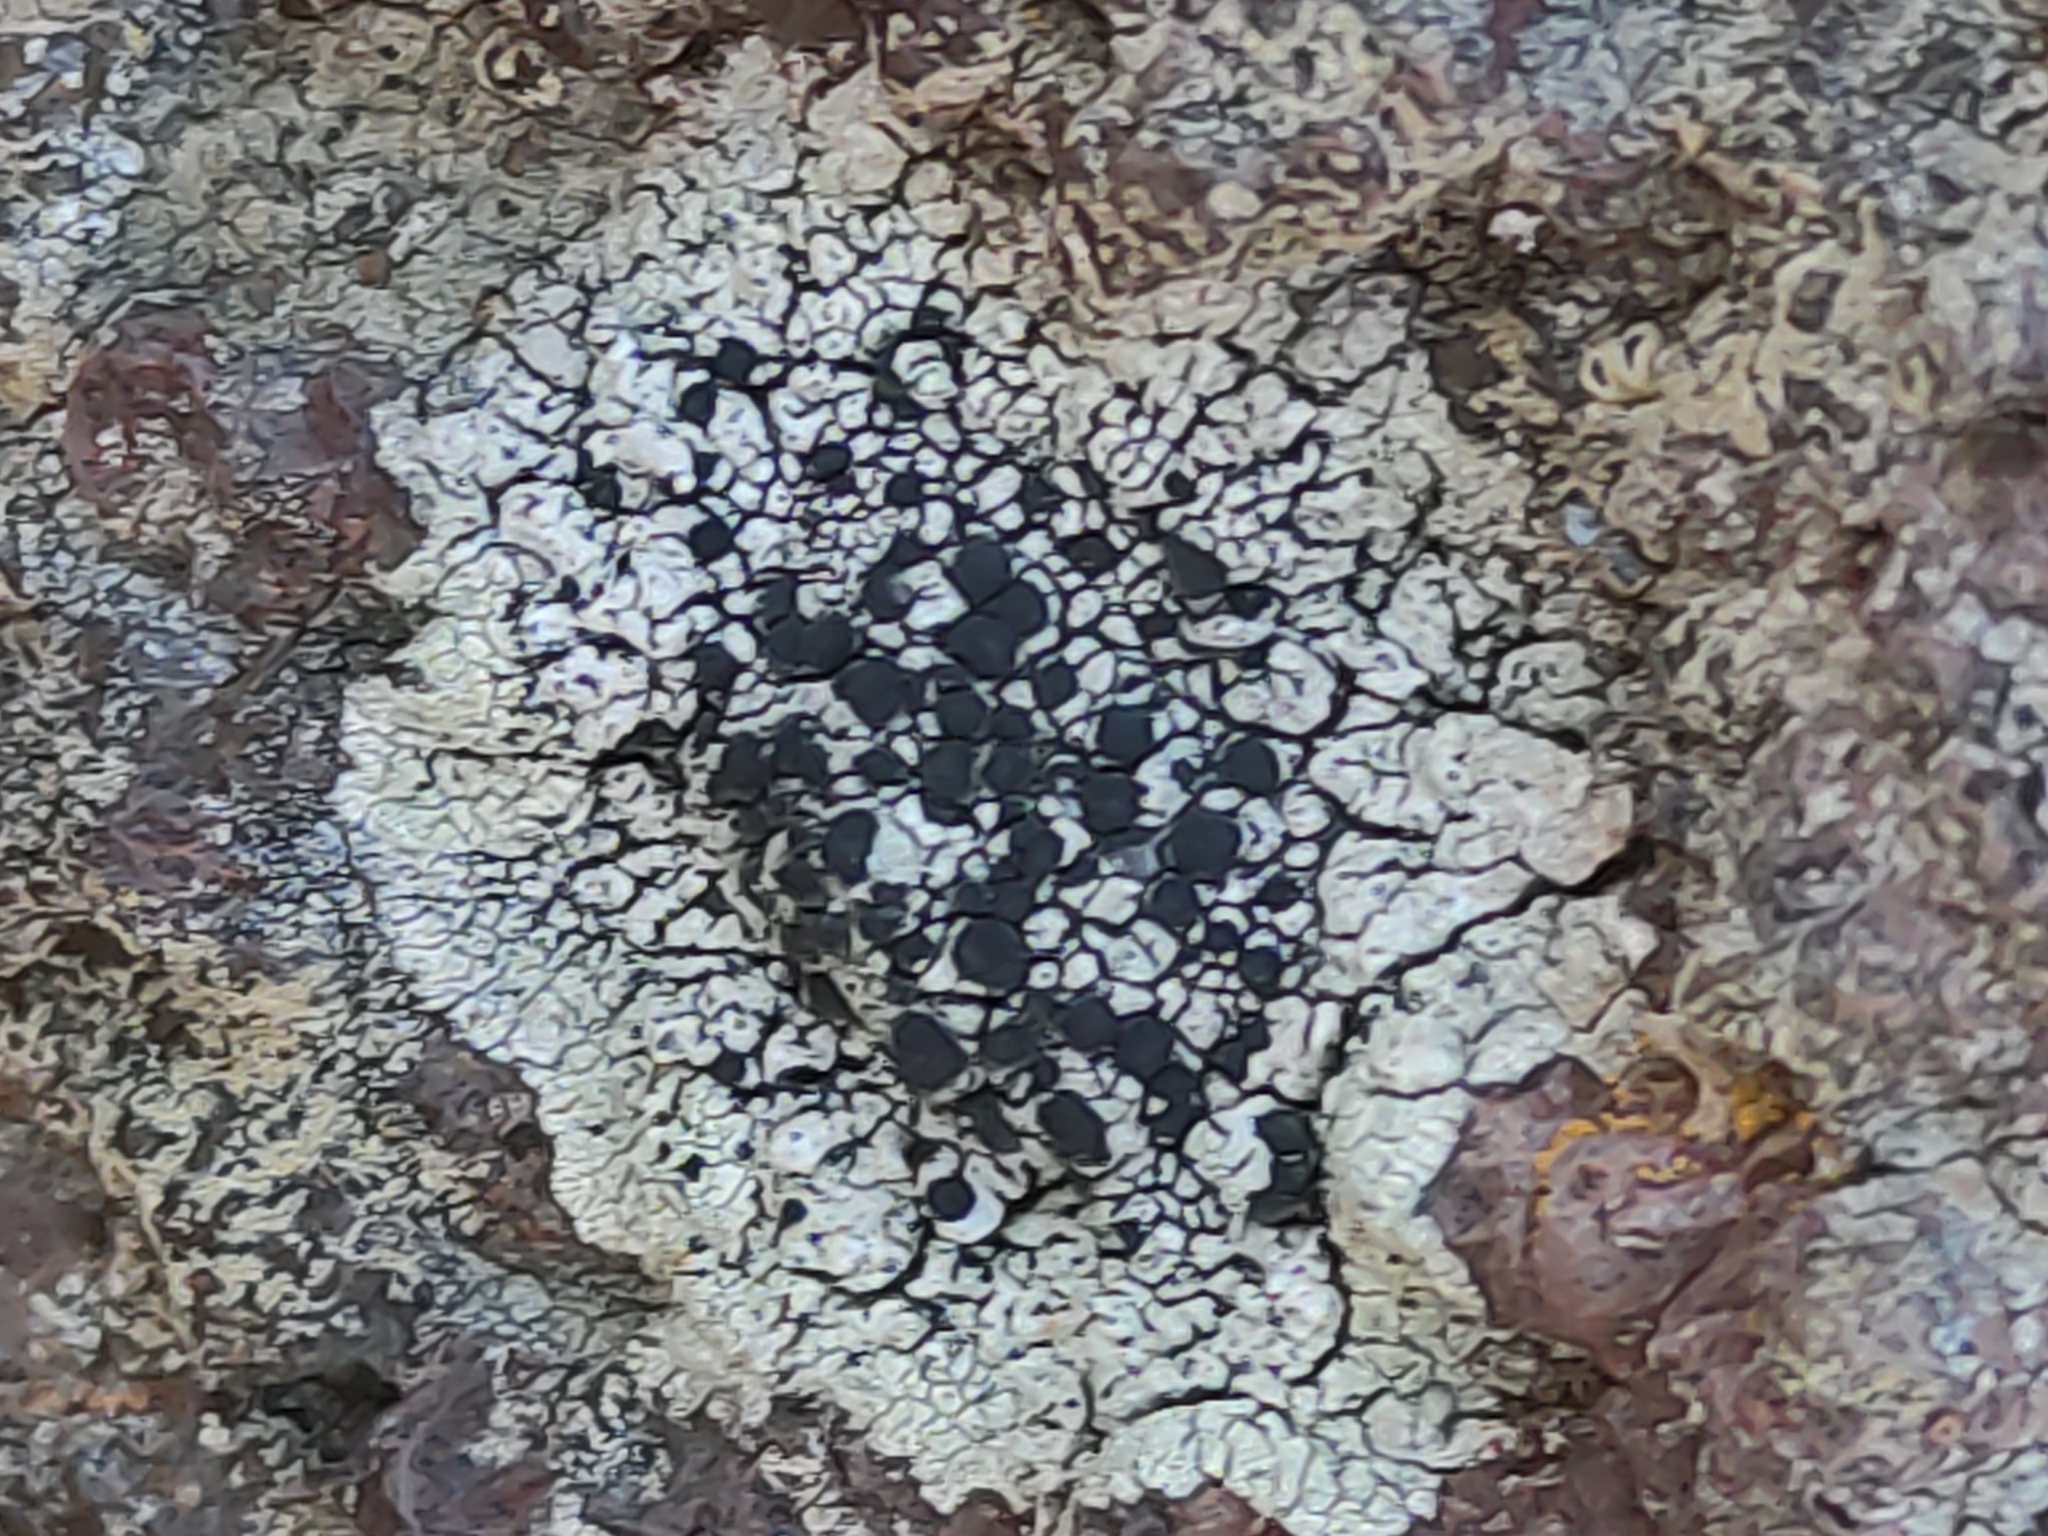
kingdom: Fungi
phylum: Ascomycota
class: Lecanoromycetes
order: Lecanorales
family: Tephromelataceae
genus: Tephromela
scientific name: Tephromela atra
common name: Black shields
